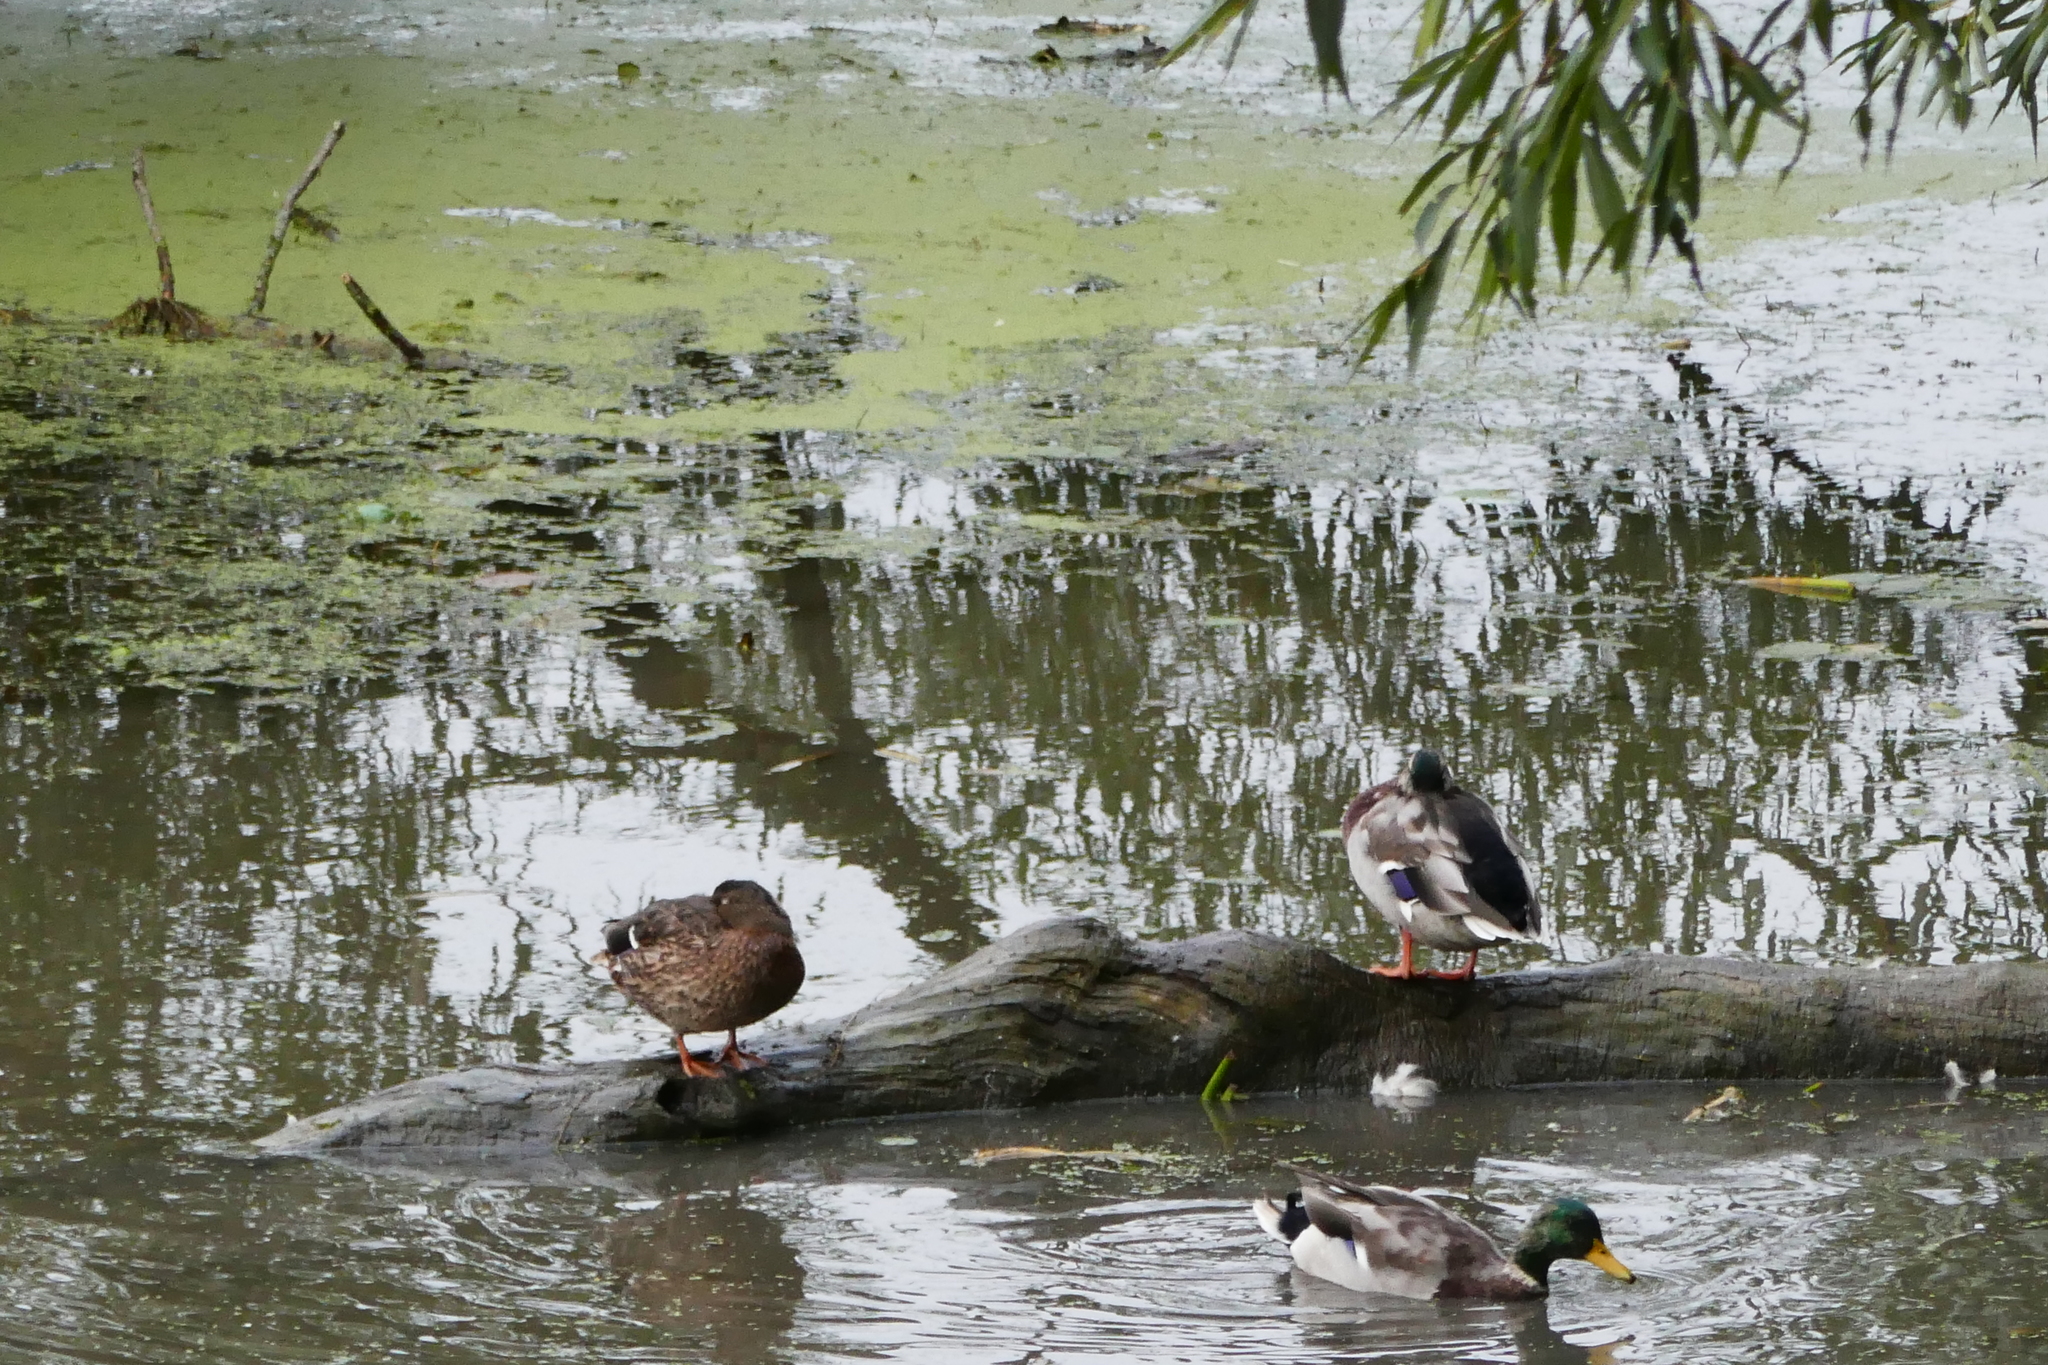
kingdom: Animalia
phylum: Chordata
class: Aves
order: Anseriformes
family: Anatidae
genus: Anas
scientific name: Anas platyrhynchos
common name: Mallard
